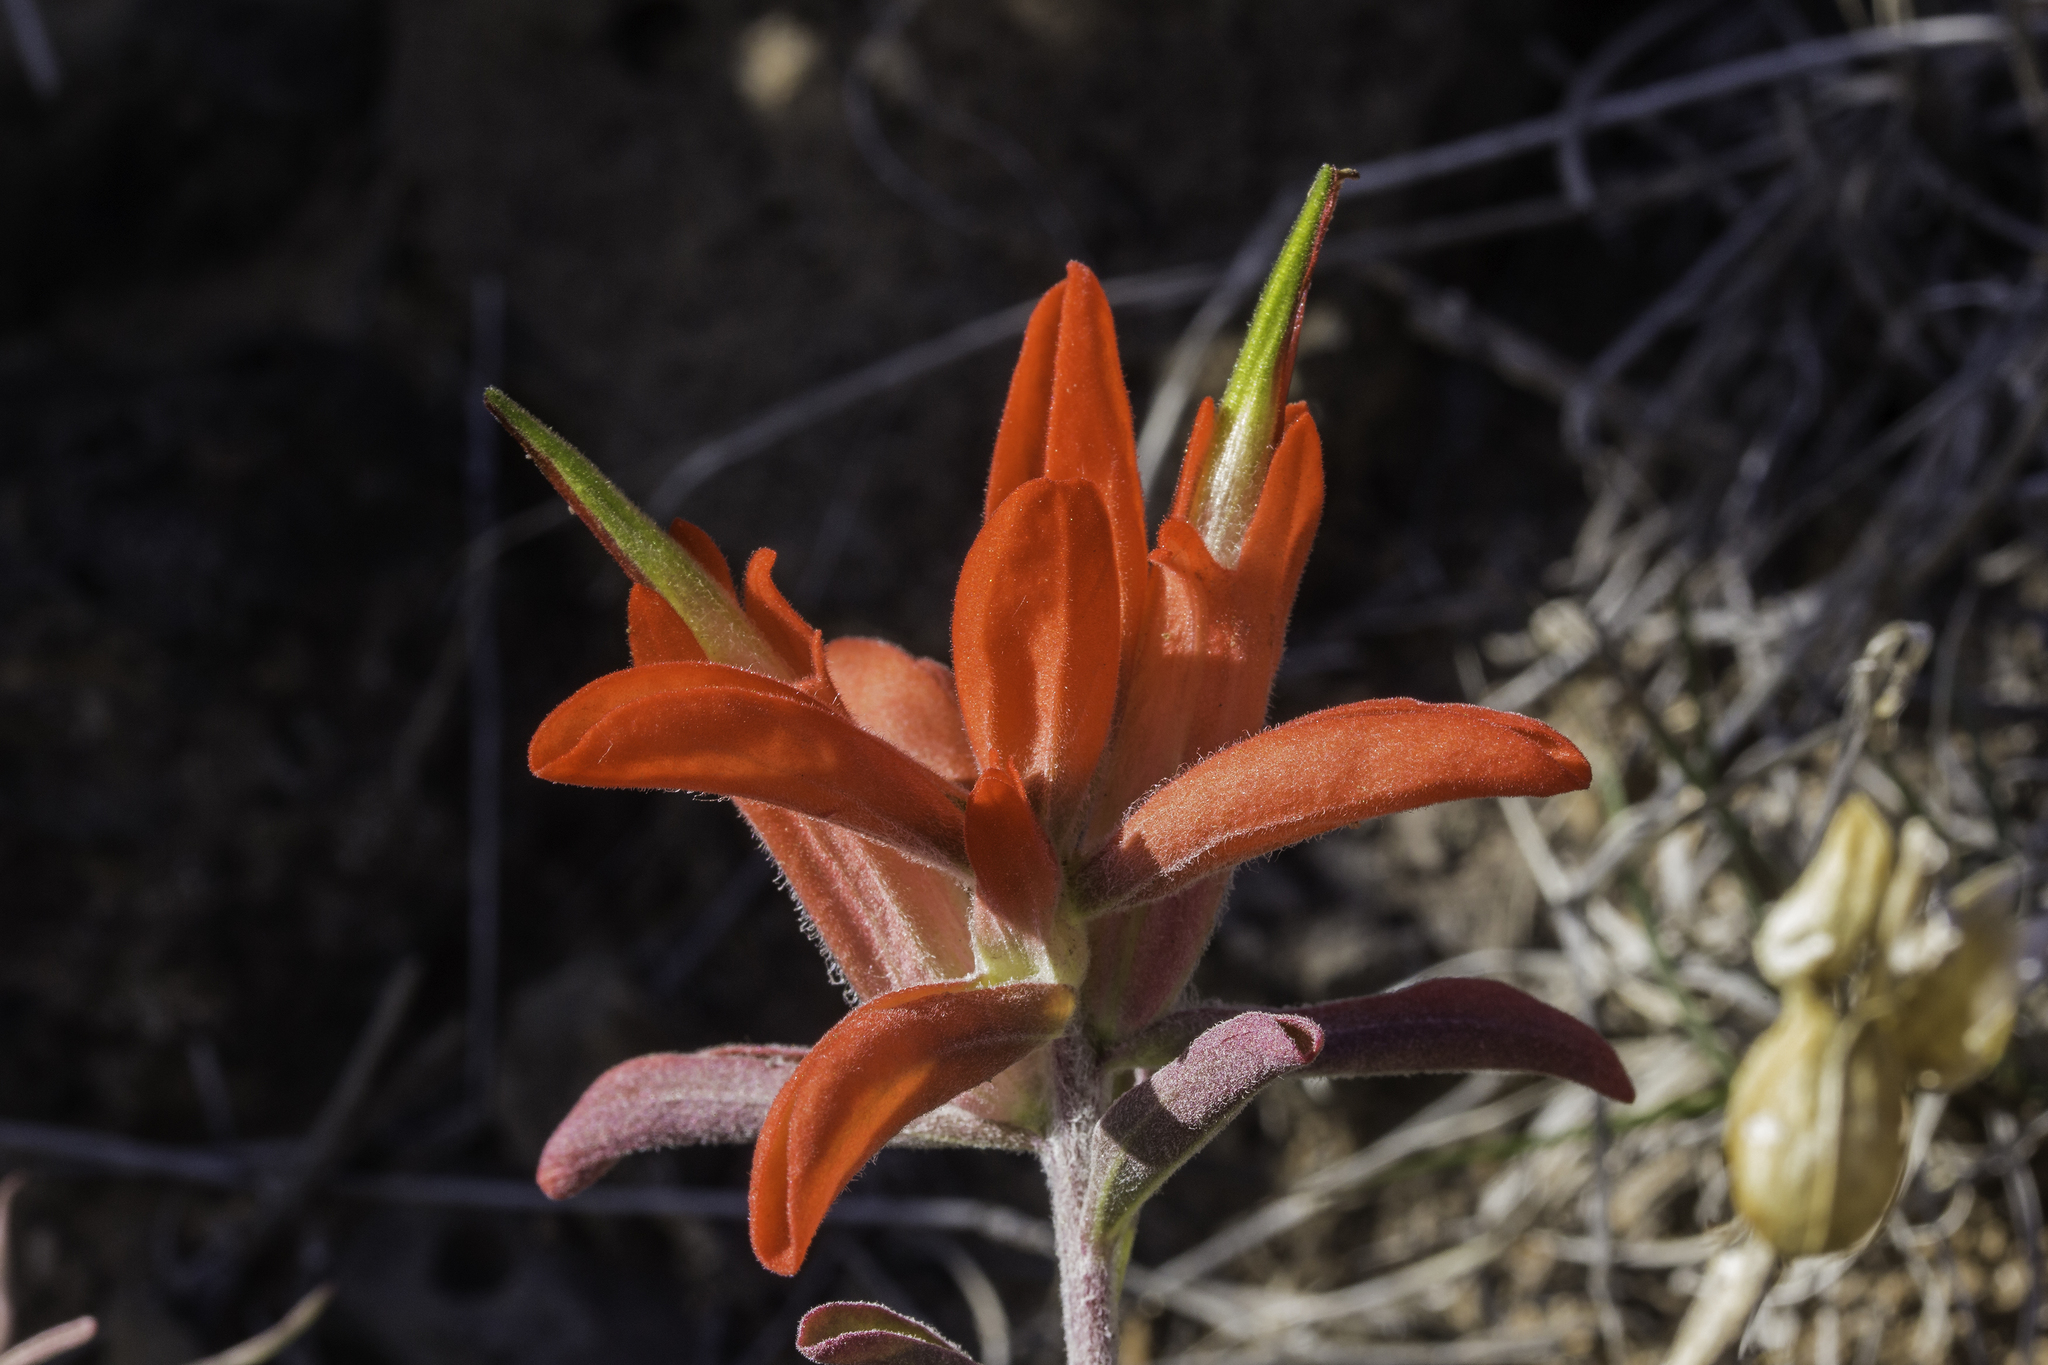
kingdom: Plantae
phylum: Tracheophyta
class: Magnoliopsida
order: Lamiales
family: Orobanchaceae
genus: Castilleja
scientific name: Castilleja integra
